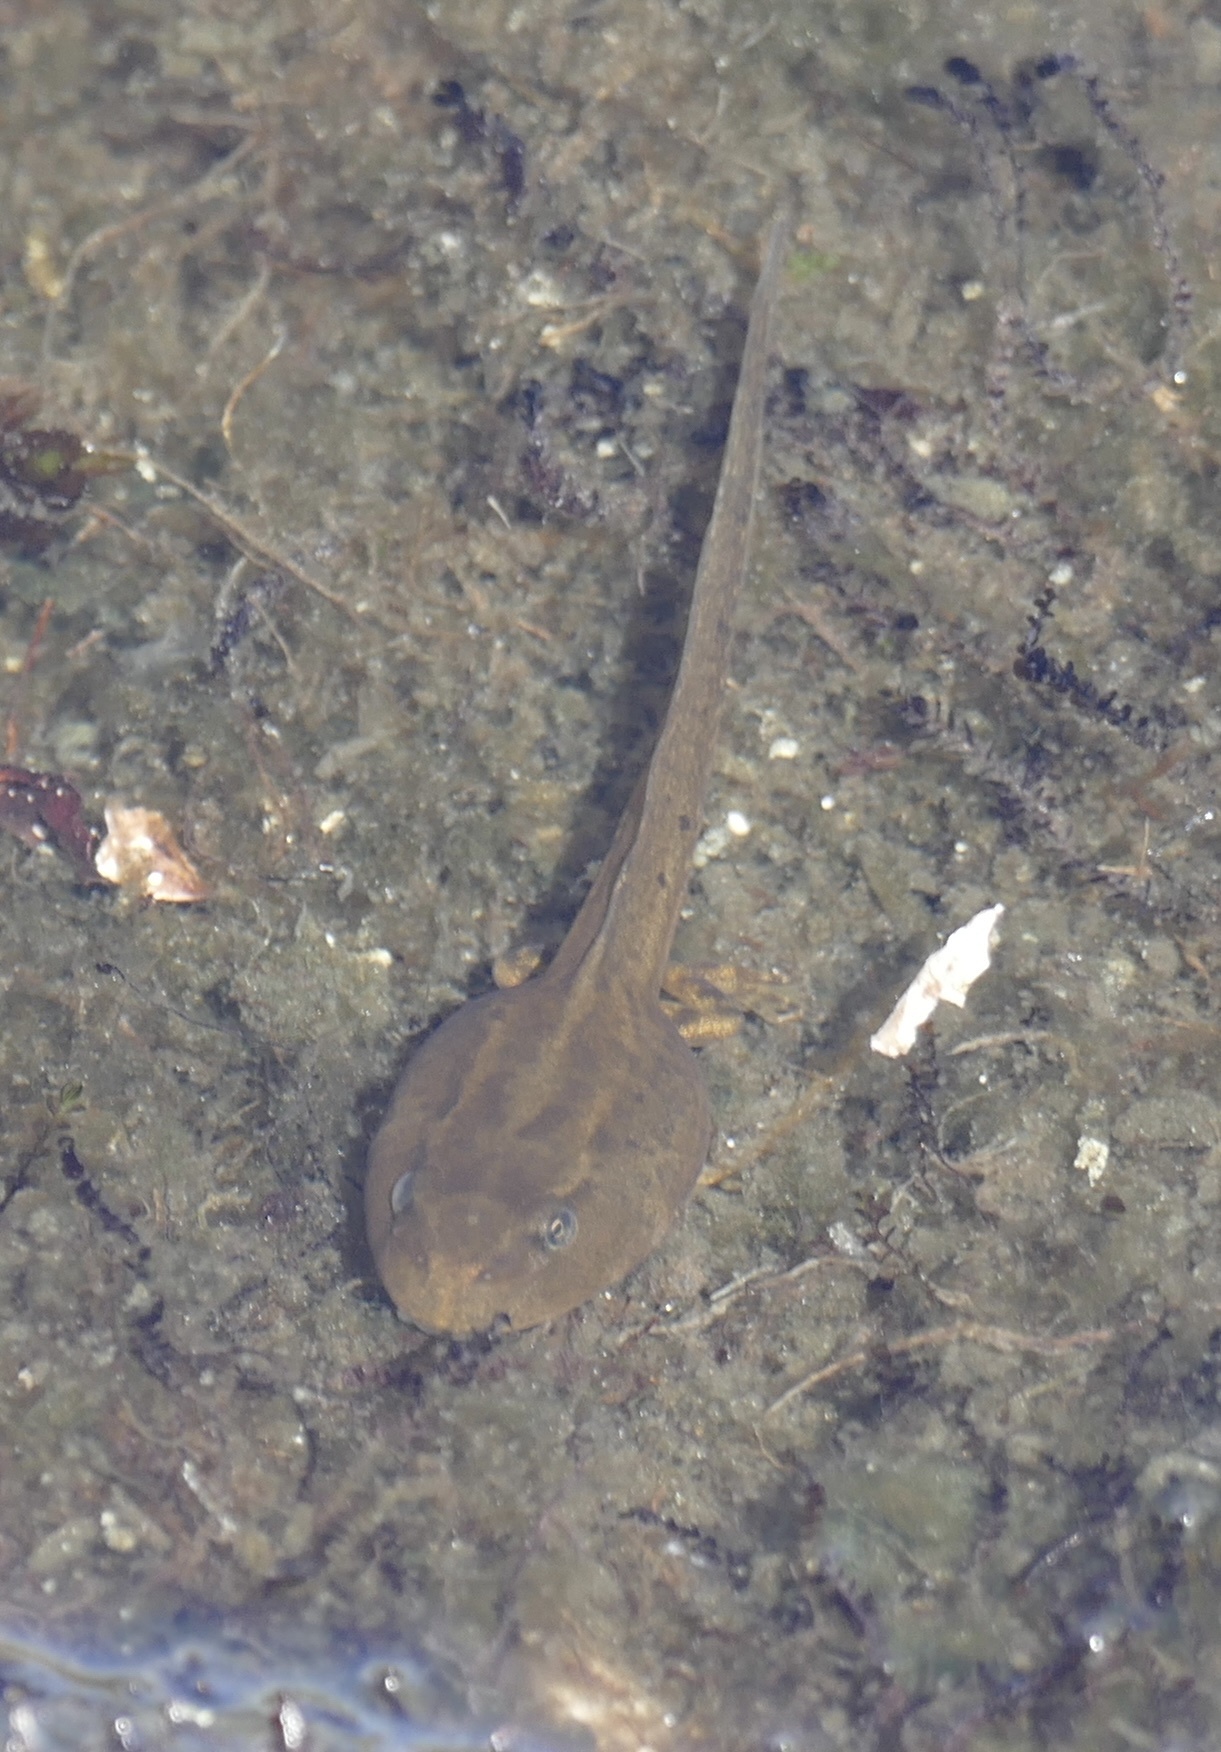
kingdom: Animalia
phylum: Chordata
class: Amphibia
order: Anura
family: Ranidae
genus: Rana
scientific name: Rana temporaria
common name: Common frog
